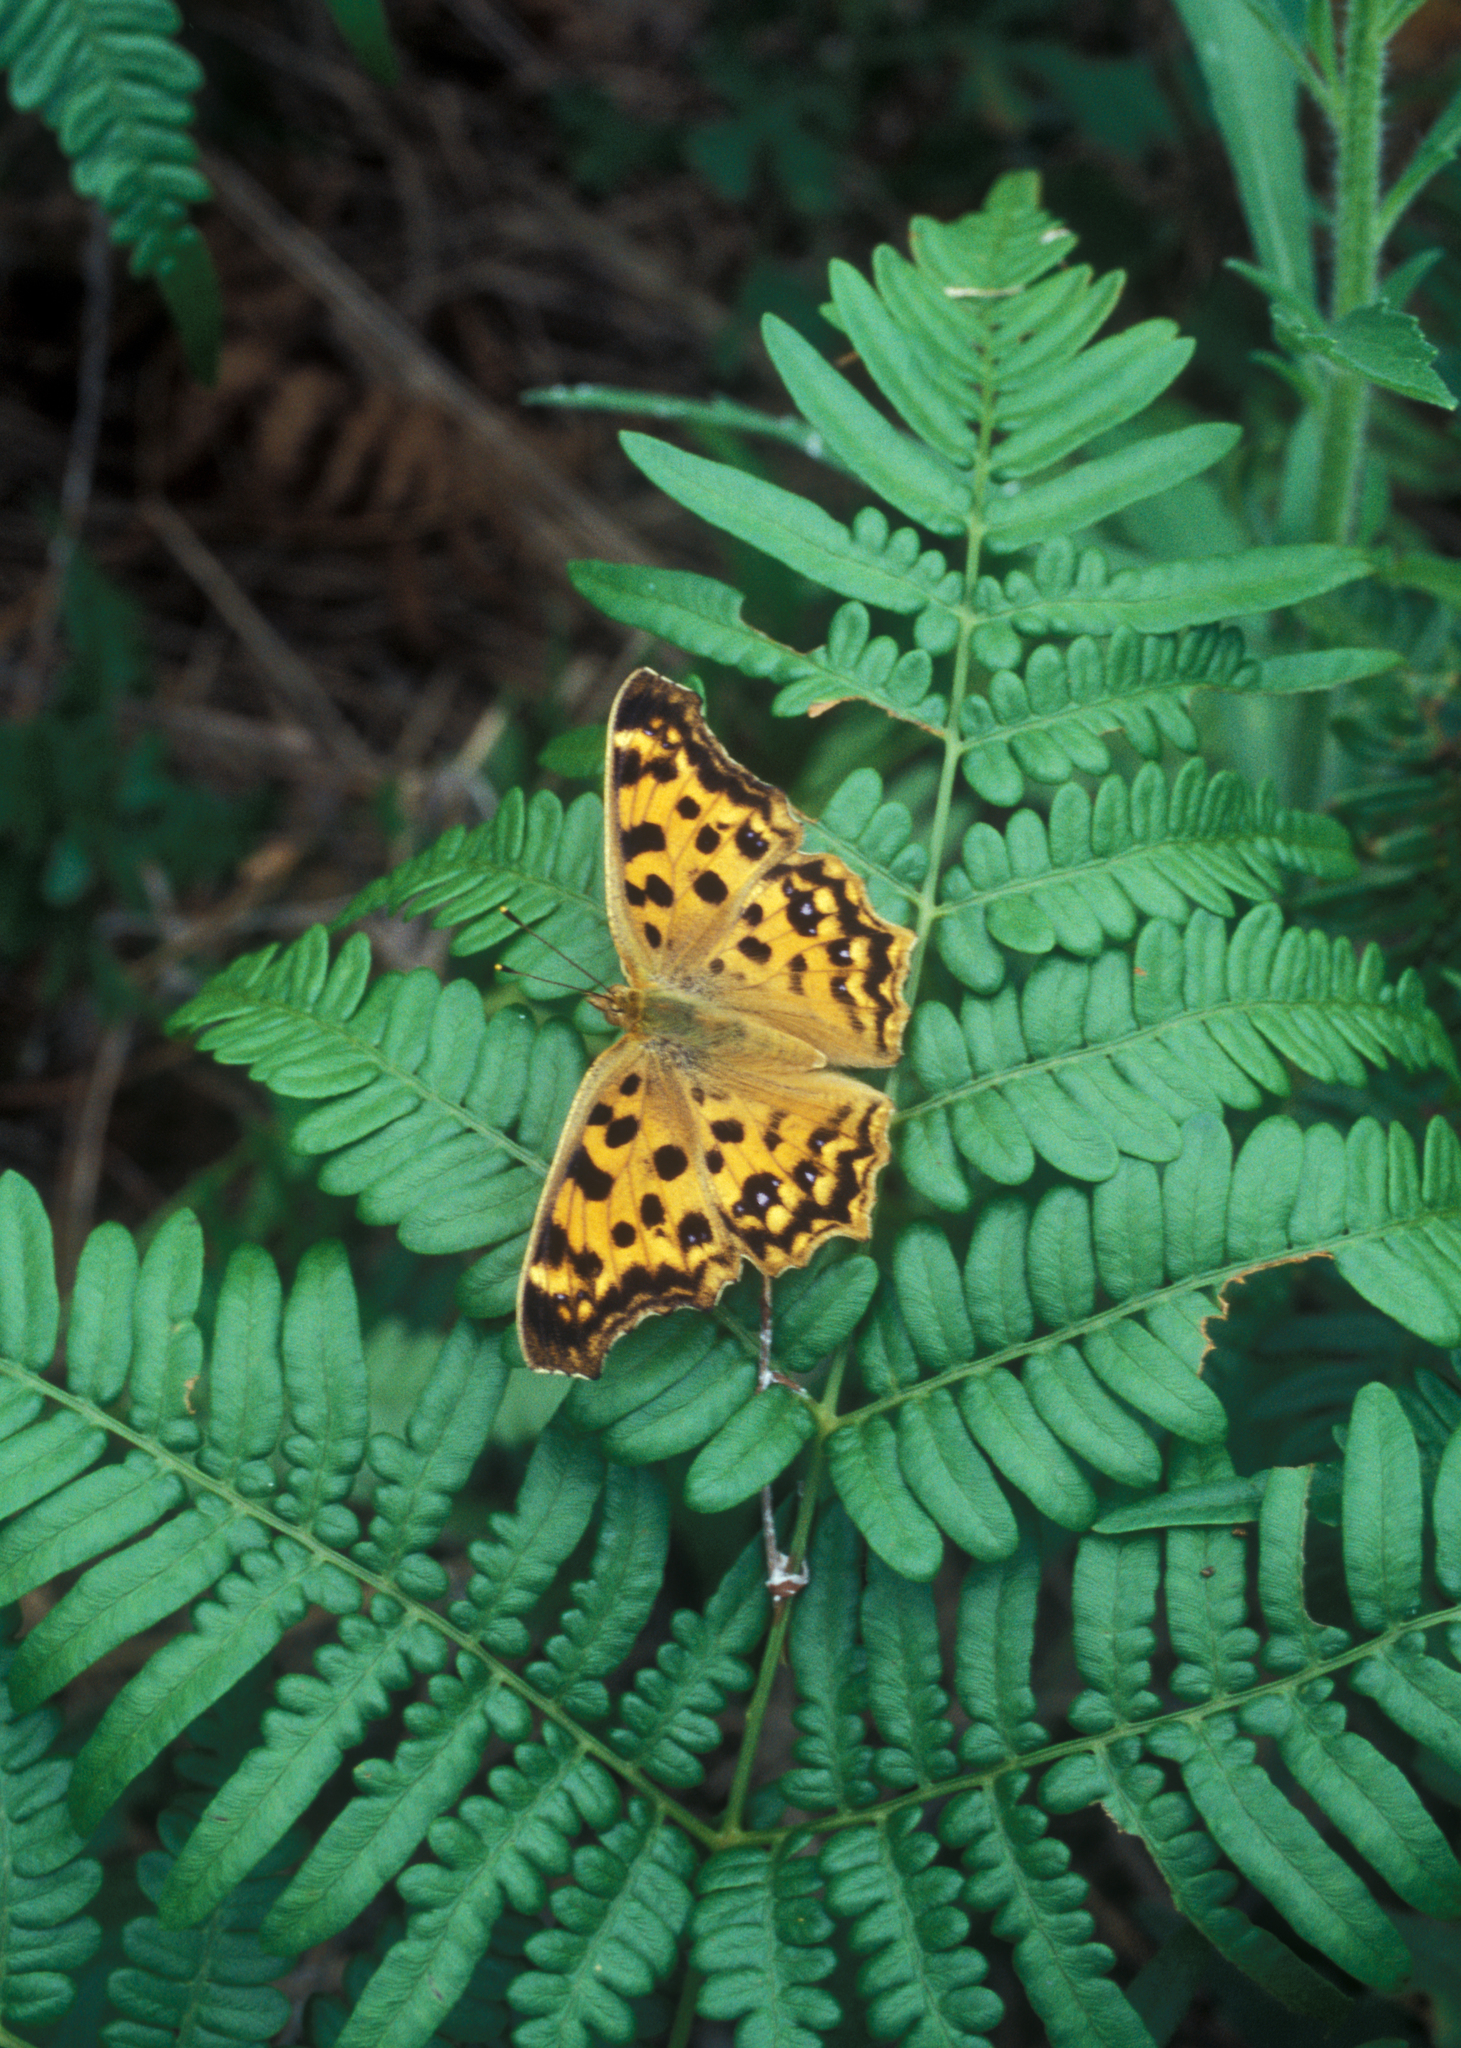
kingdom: Animalia
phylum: Arthropoda
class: Insecta
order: Lepidoptera
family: Nymphalidae
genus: Polygonia
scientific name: Polygonia c-aureum
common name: Asian comma
